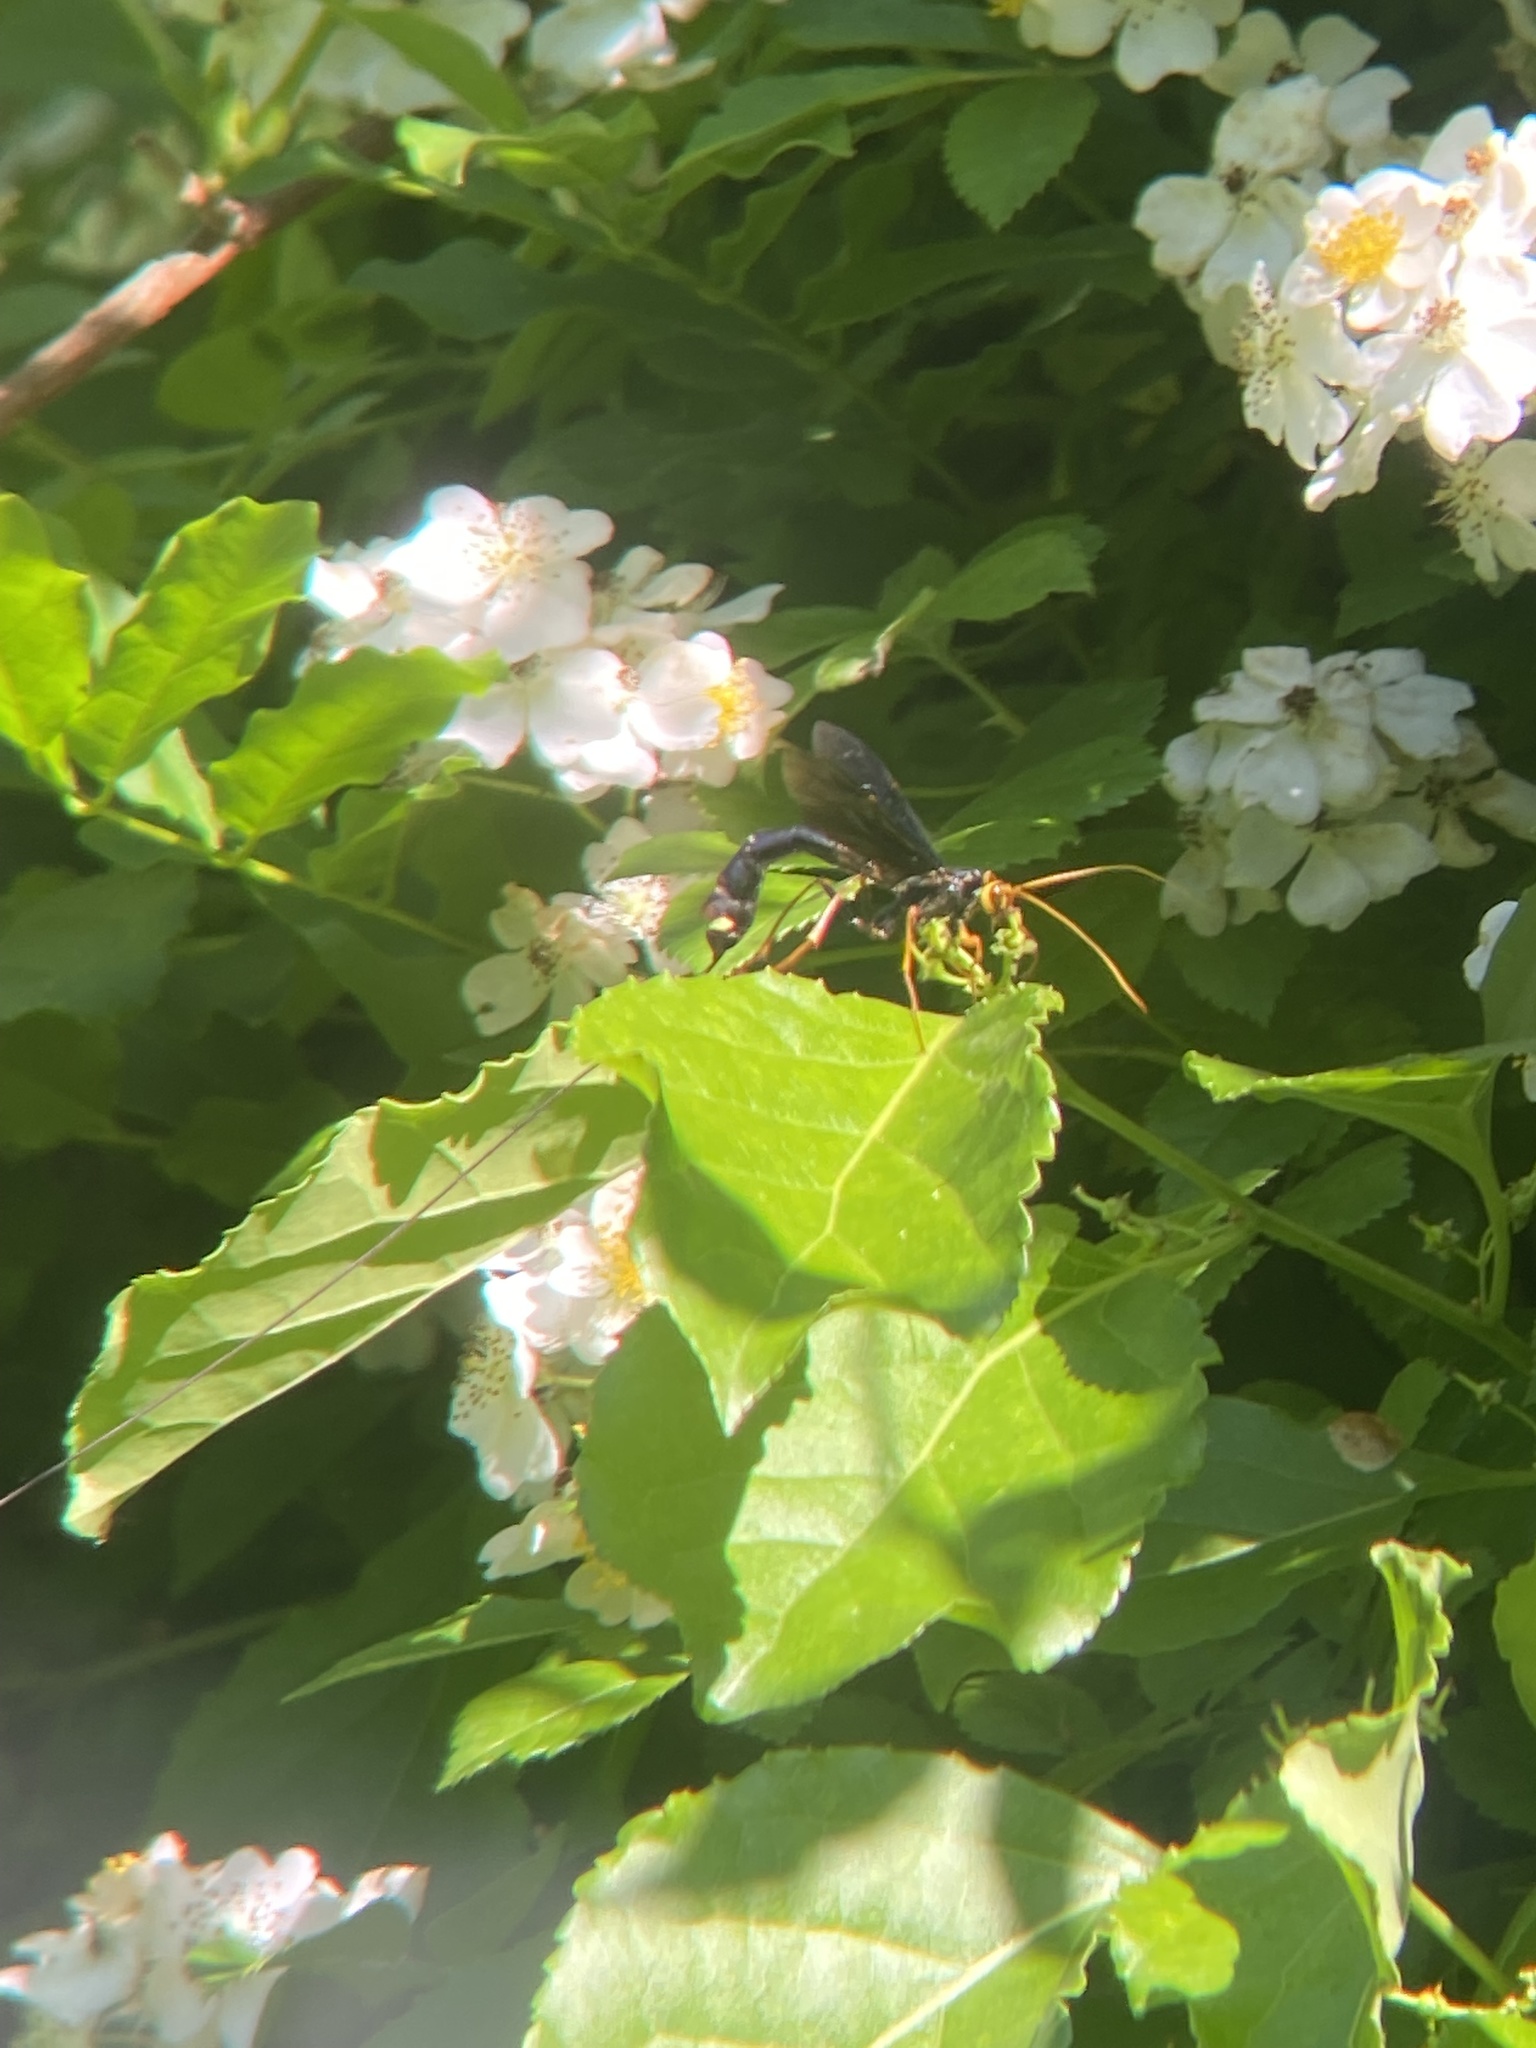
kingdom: Animalia
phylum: Arthropoda
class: Insecta
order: Hymenoptera
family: Ichneumonidae
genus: Megarhyssa
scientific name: Megarhyssa atrata
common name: Black giant ichneumonid wasp
